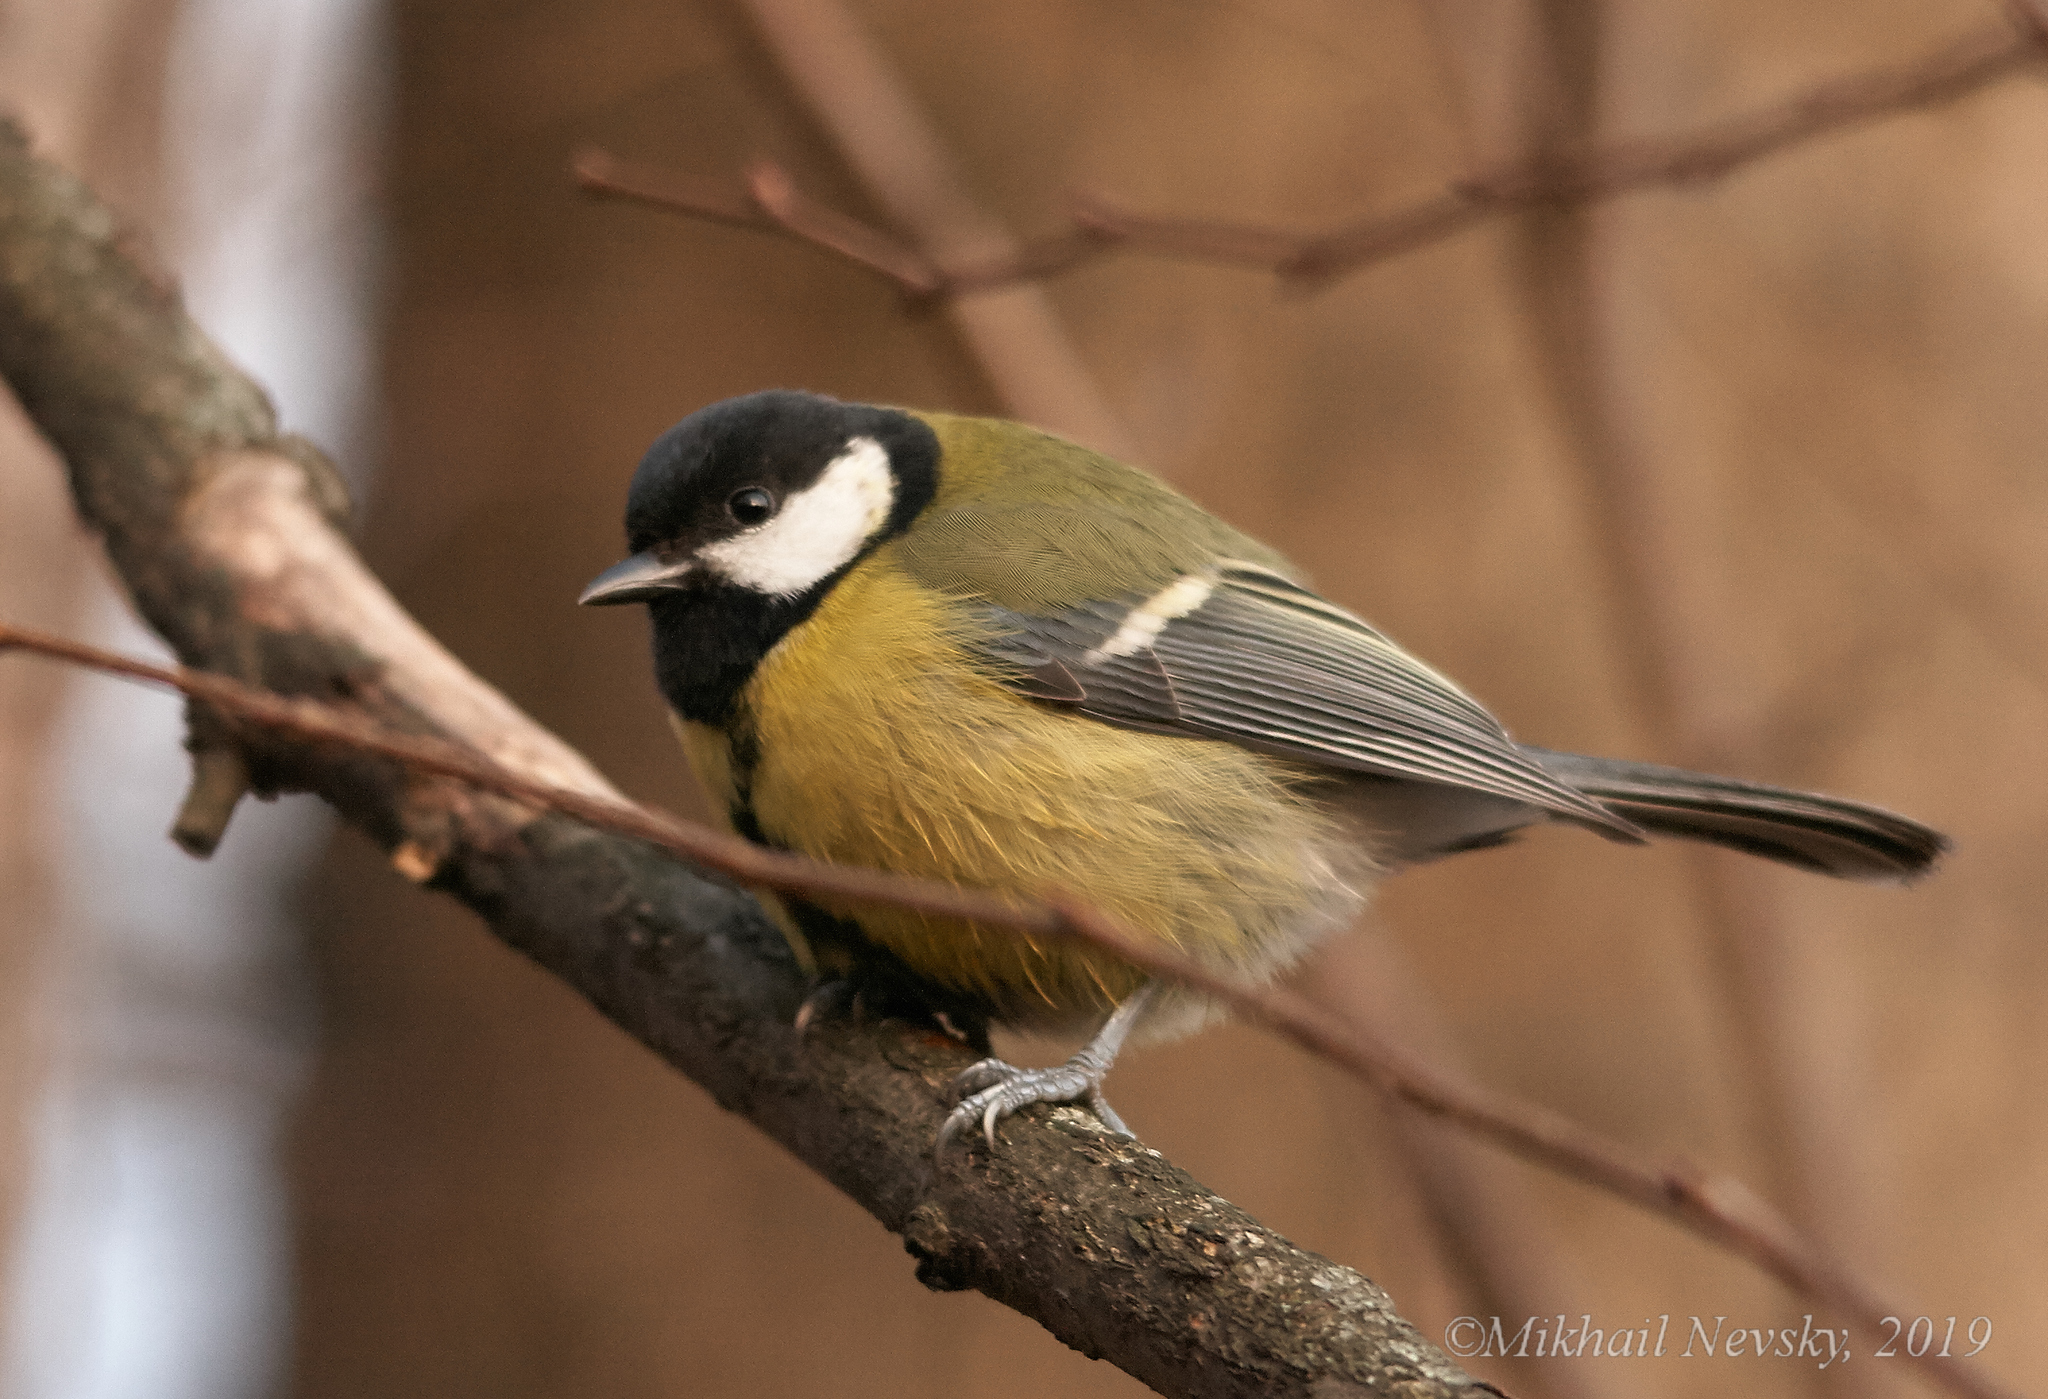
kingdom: Animalia
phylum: Chordata
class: Aves
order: Passeriformes
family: Paridae
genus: Parus
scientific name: Parus major
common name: Great tit
